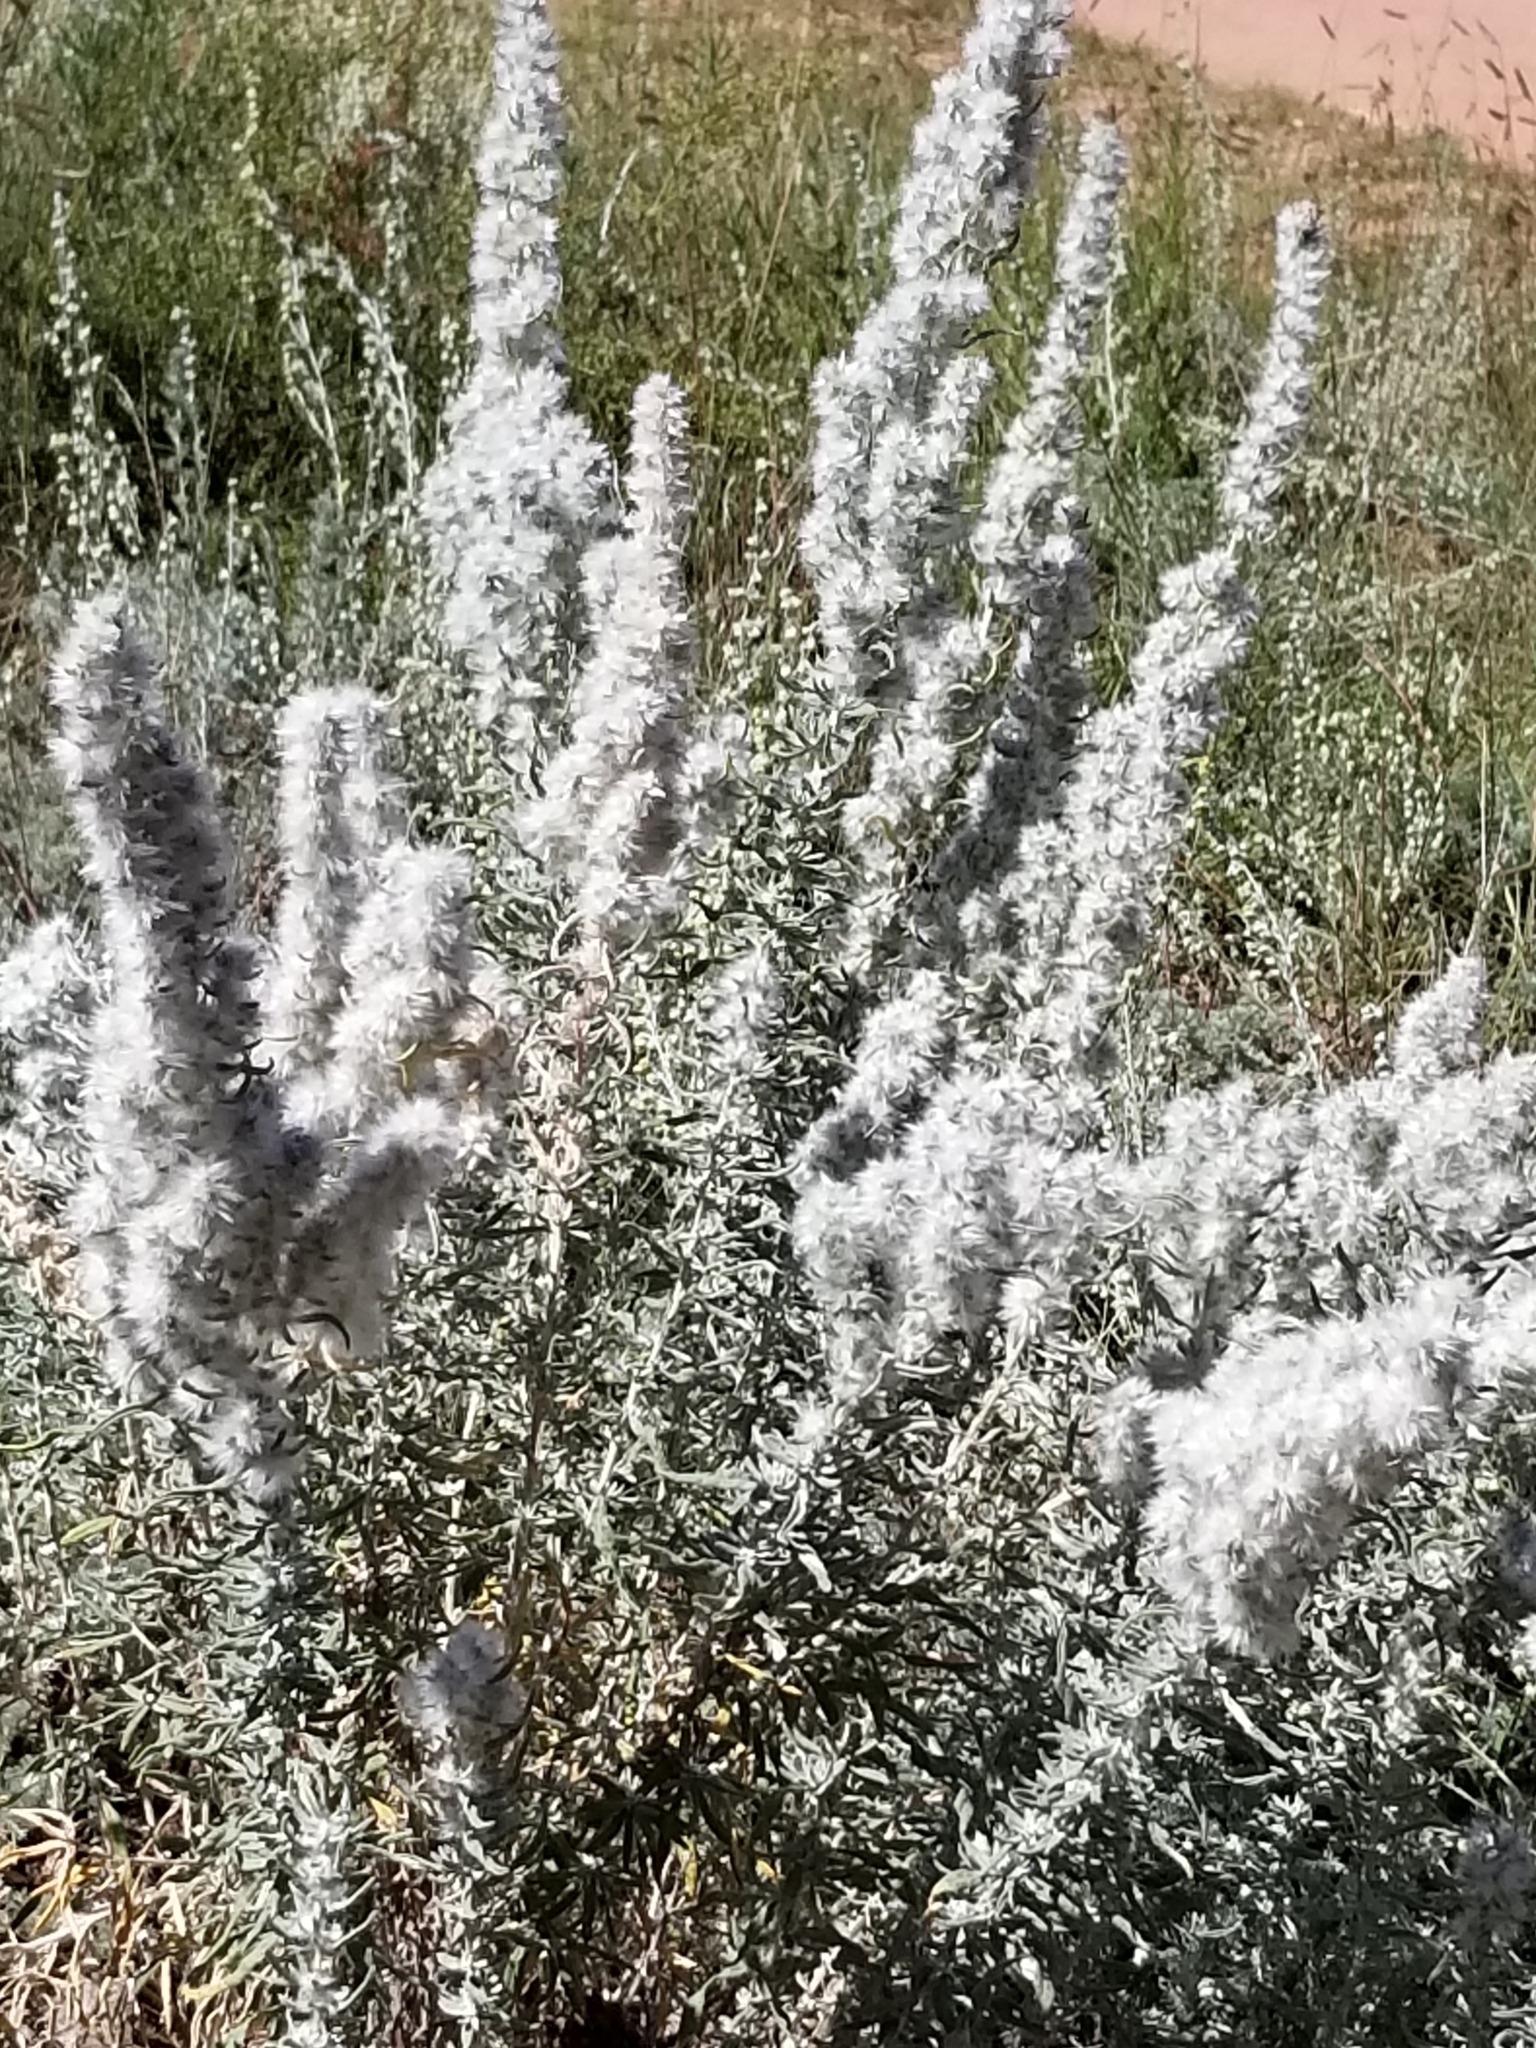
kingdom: Plantae
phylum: Tracheophyta
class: Magnoliopsida
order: Caryophyllales
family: Amaranthaceae
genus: Krascheninnikovia
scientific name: Krascheninnikovia lanata
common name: Winterfat
